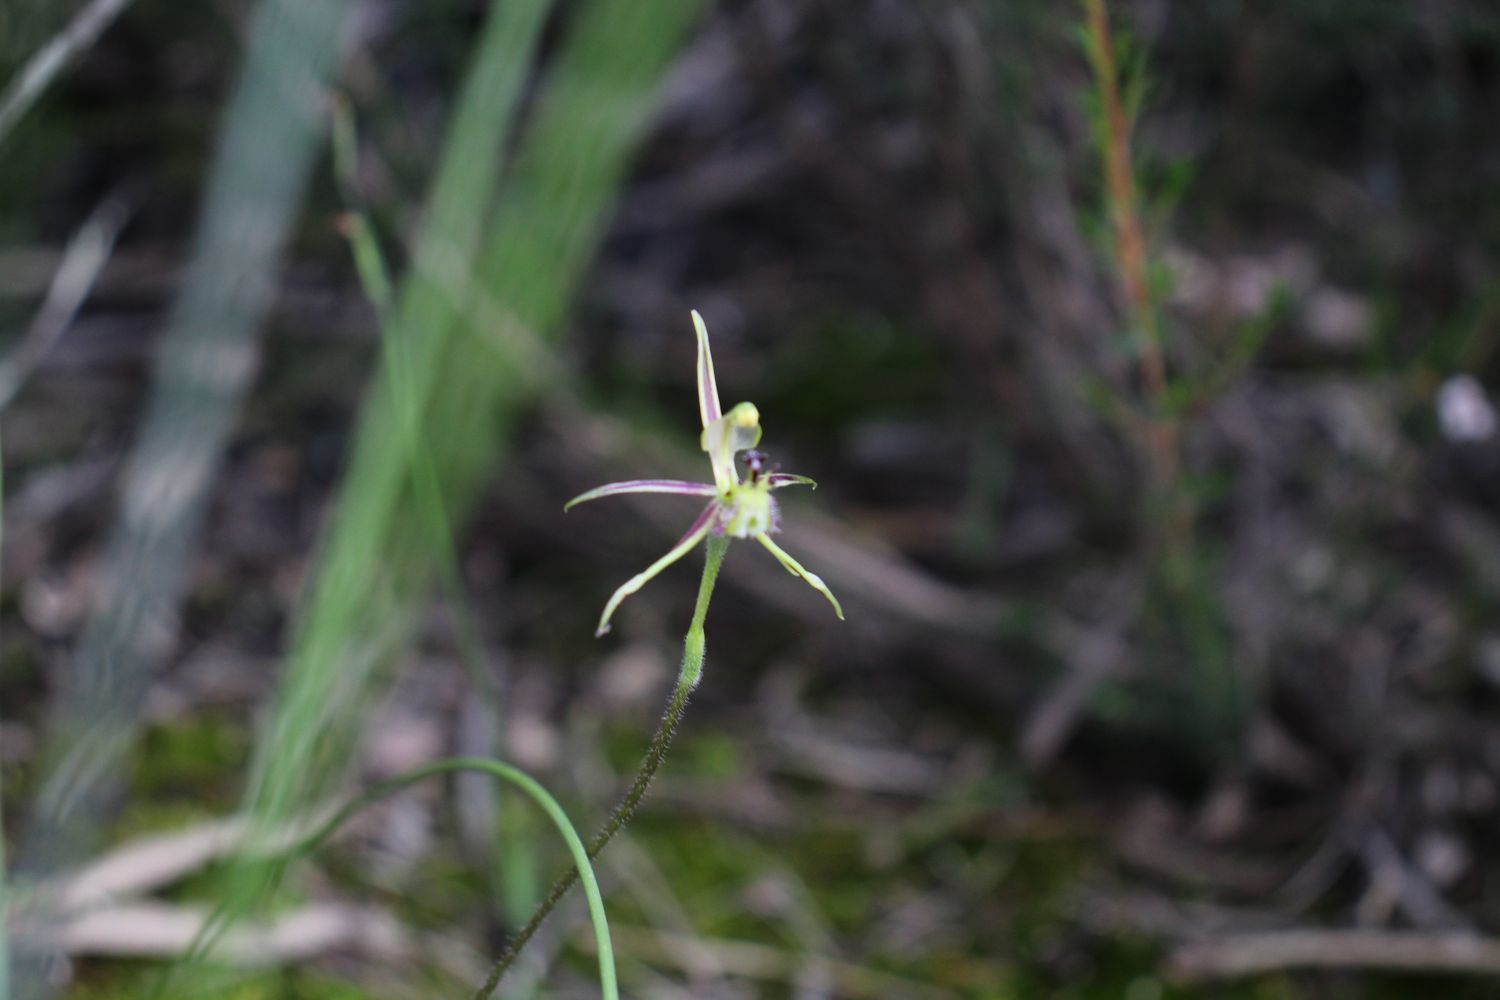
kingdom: Plantae
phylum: Tracheophyta
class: Liliopsida
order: Asparagales
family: Orchidaceae
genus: Caladenia
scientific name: Caladenia barbarossa
